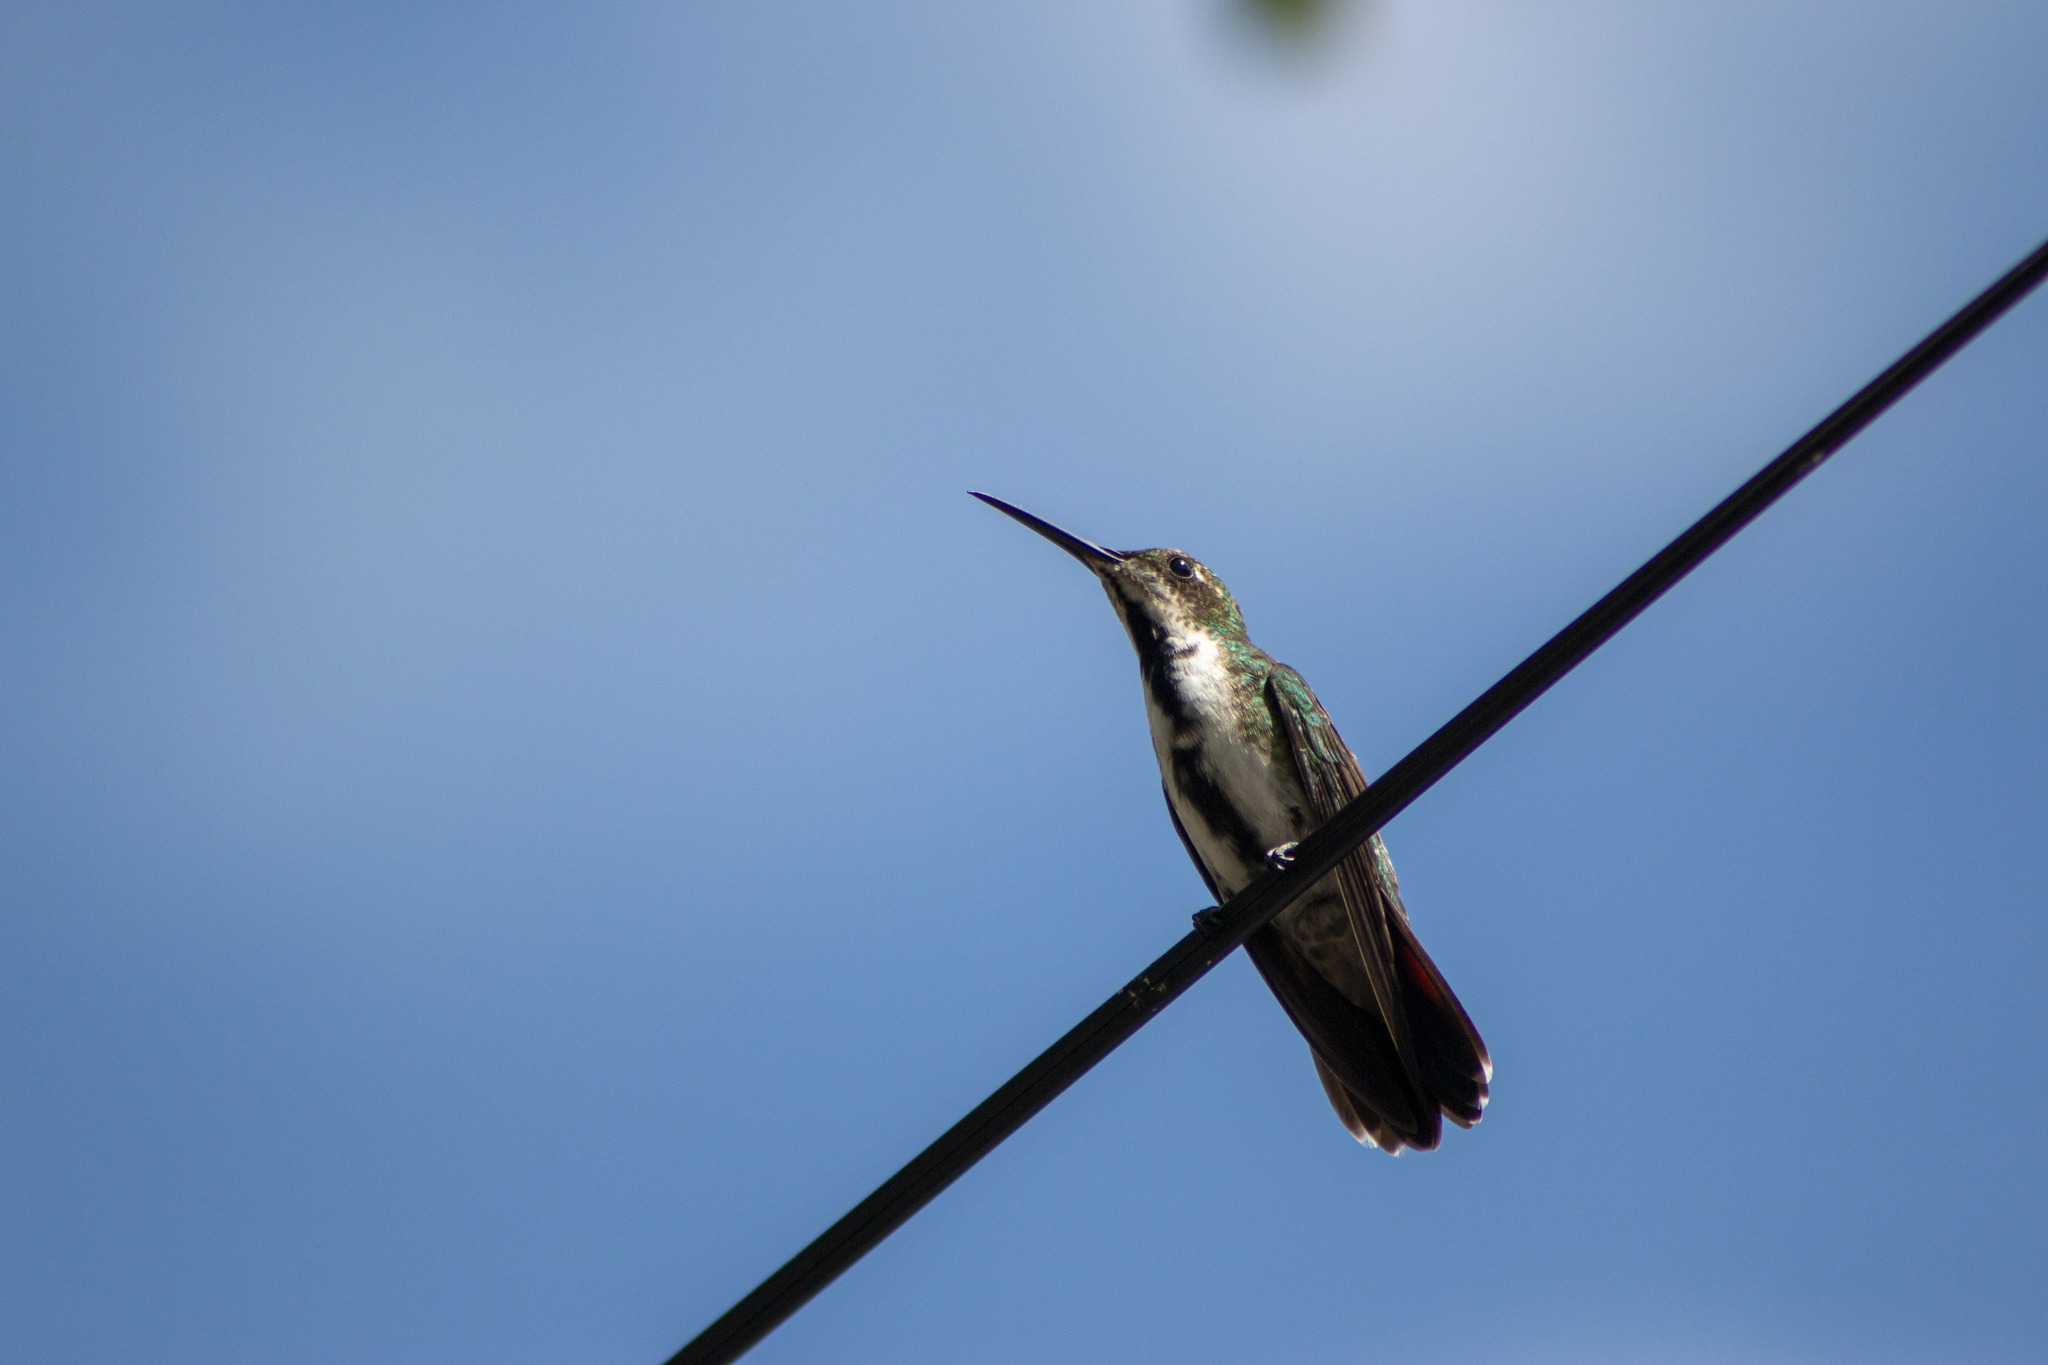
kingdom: Animalia
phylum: Chordata
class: Aves
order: Apodiformes
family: Trochilidae
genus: Anthracothorax
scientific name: Anthracothorax nigricollis
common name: Black-throated mango
